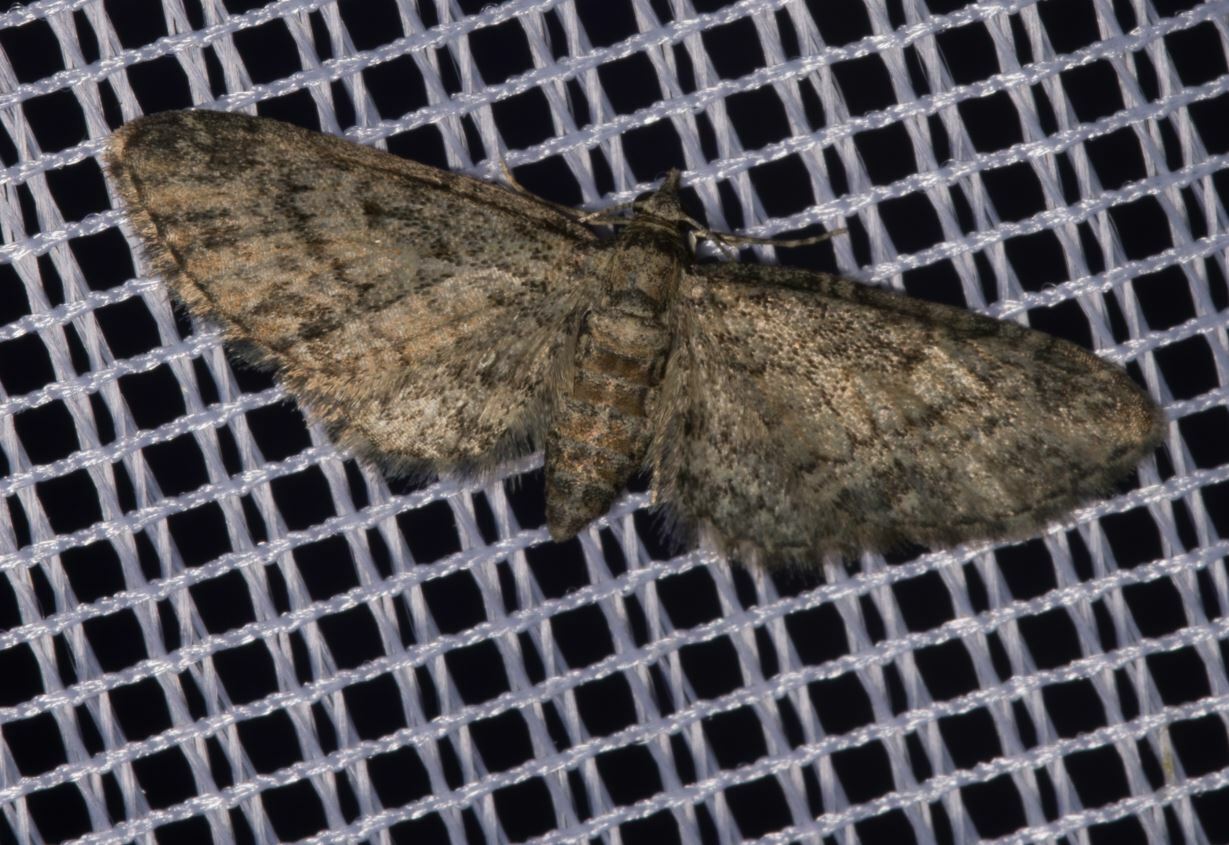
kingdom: Animalia
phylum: Arthropoda
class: Insecta
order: Lepidoptera
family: Geometridae
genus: Eupithecia
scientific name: Eupithecia inturbata
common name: Maple pug
